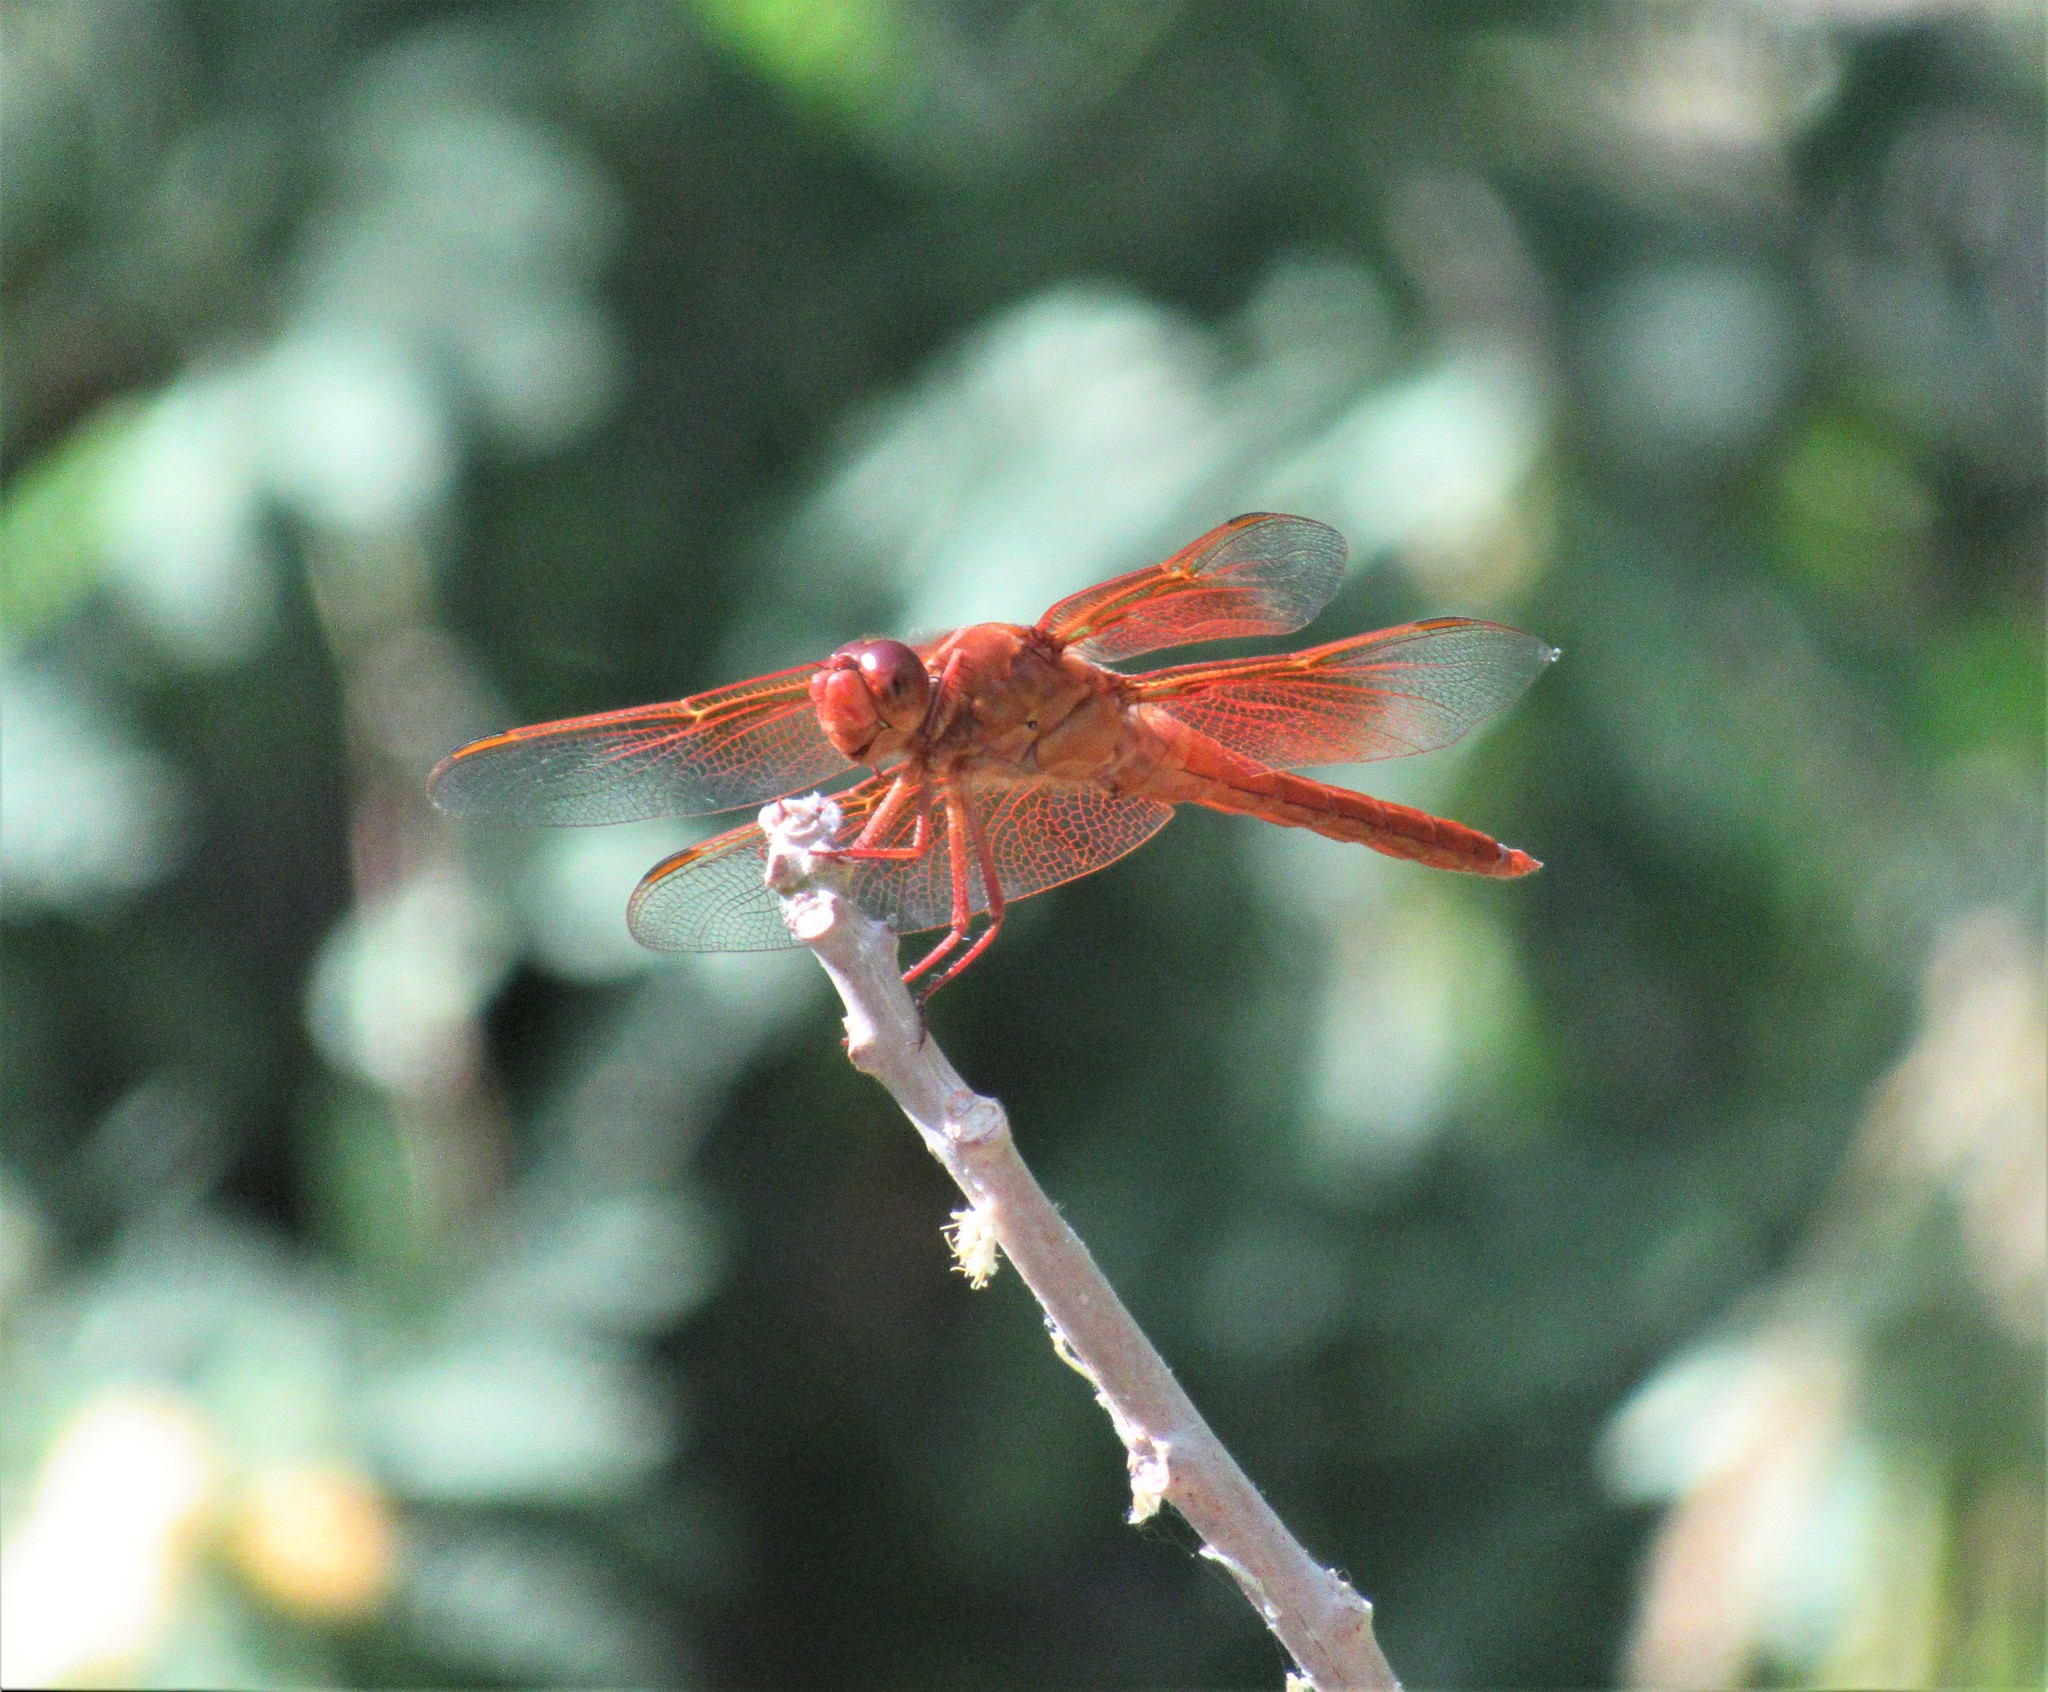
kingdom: Animalia
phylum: Arthropoda
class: Insecta
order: Odonata
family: Libellulidae
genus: Libellula
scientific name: Libellula saturata
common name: Flame skimmer
